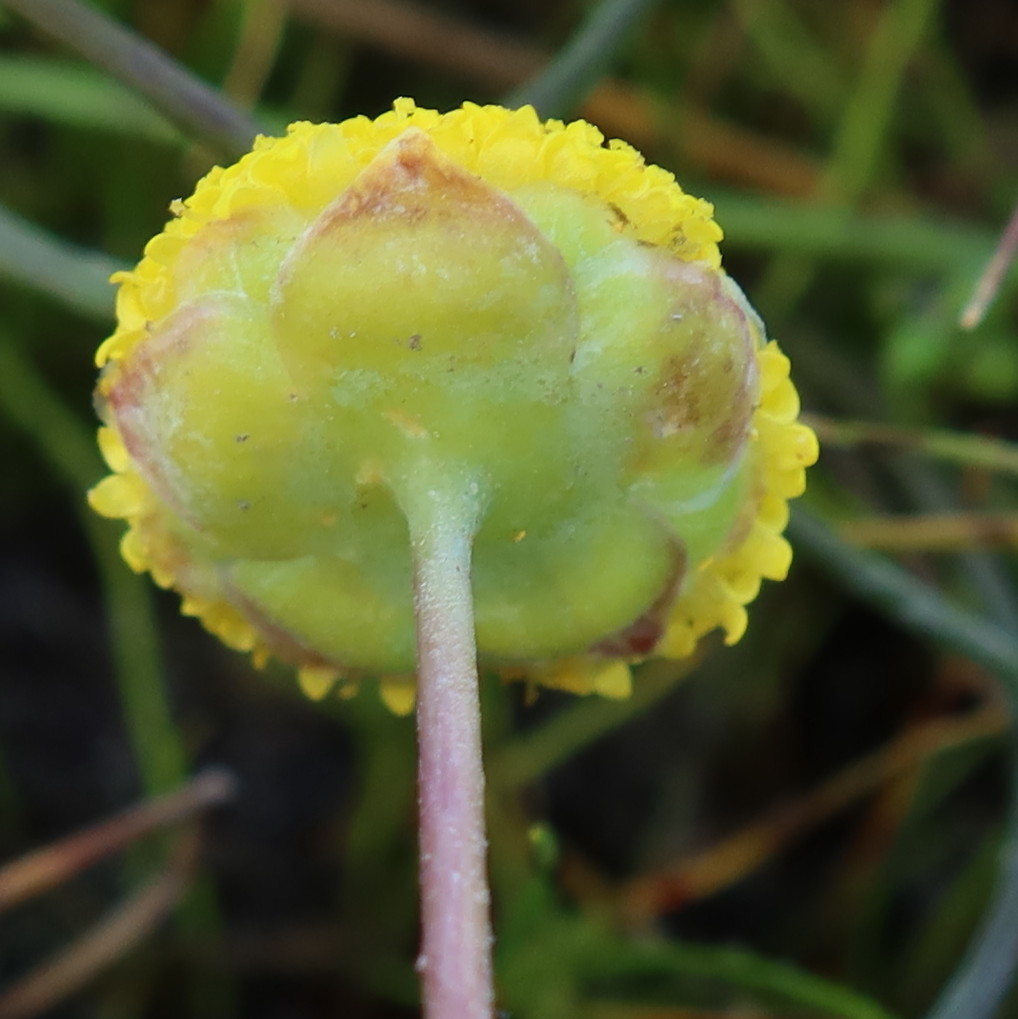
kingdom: Plantae
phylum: Tracheophyta
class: Magnoliopsida
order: Asterales
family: Asteraceae
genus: Cotula
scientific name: Cotula vulgaris
